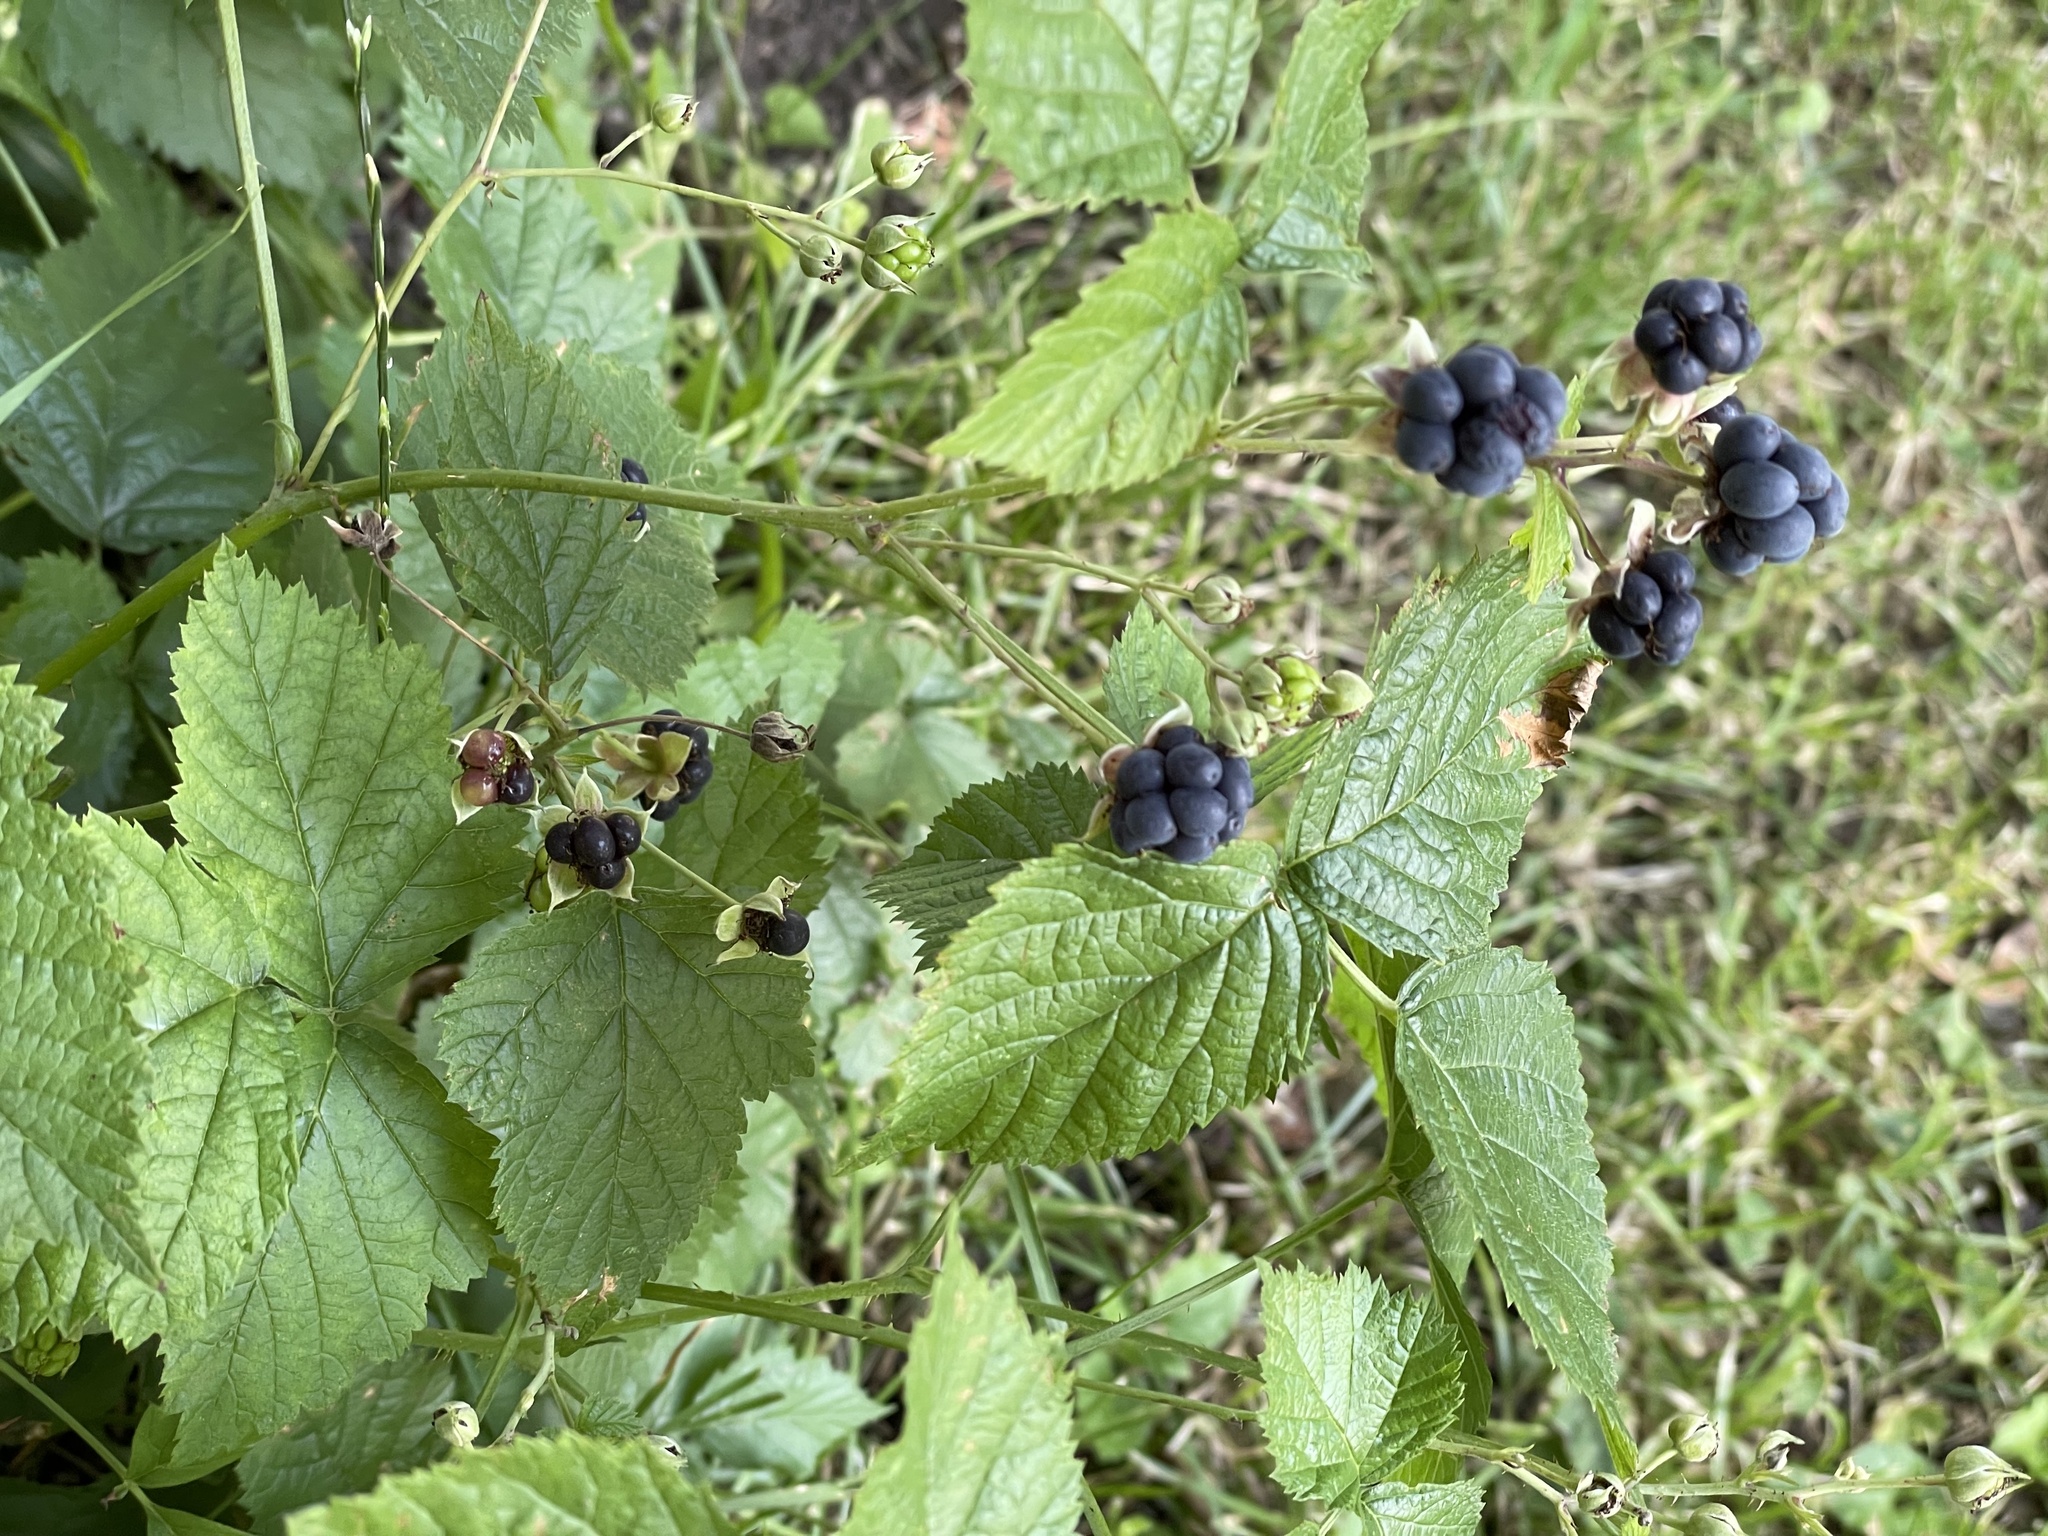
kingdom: Plantae
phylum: Tracheophyta
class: Magnoliopsida
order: Rosales
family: Rosaceae
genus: Rubus
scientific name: Rubus caesius
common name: Dewberry
